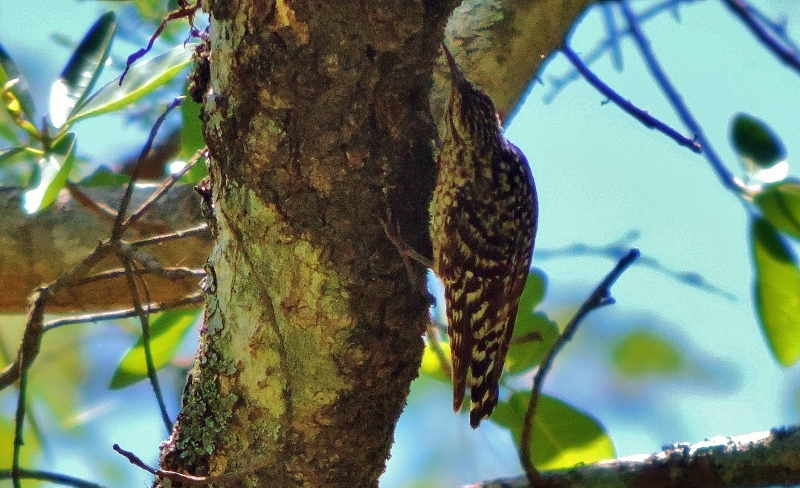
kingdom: Animalia
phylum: Chordata
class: Aves
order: Passeriformes
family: Certhiidae
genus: Salpornis
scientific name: Salpornis salvadori
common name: African spotted creeper
